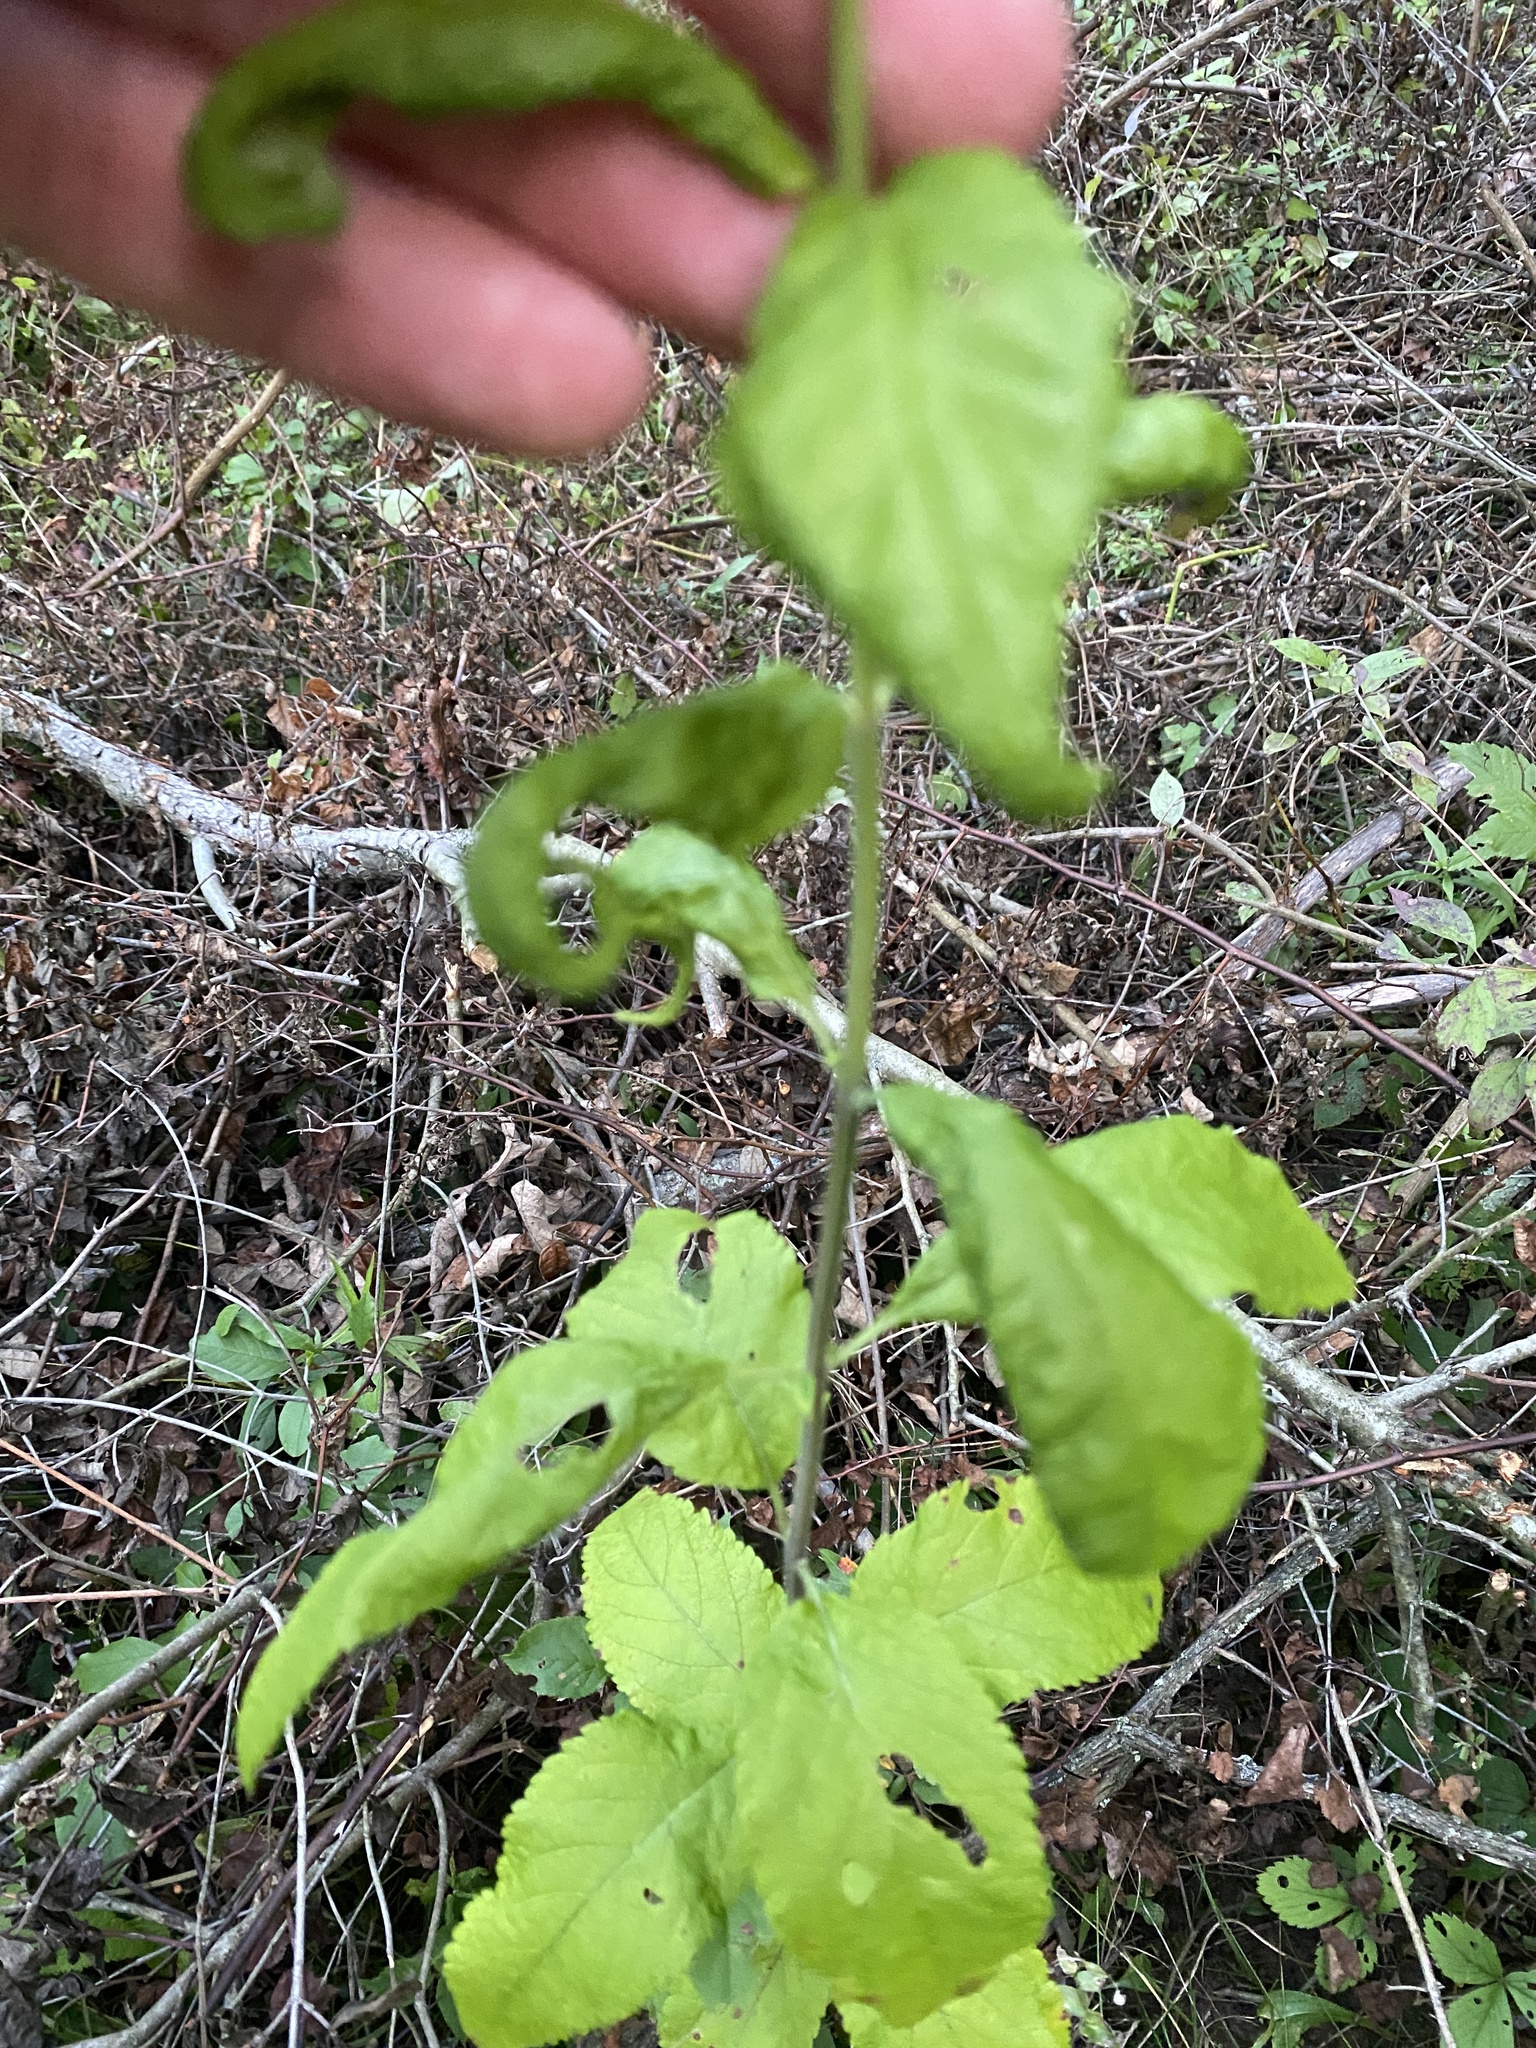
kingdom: Plantae
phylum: Tracheophyta
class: Magnoliopsida
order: Lamiales
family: Lamiaceae
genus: Teucrium
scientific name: Teucrium canadense
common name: American germander
